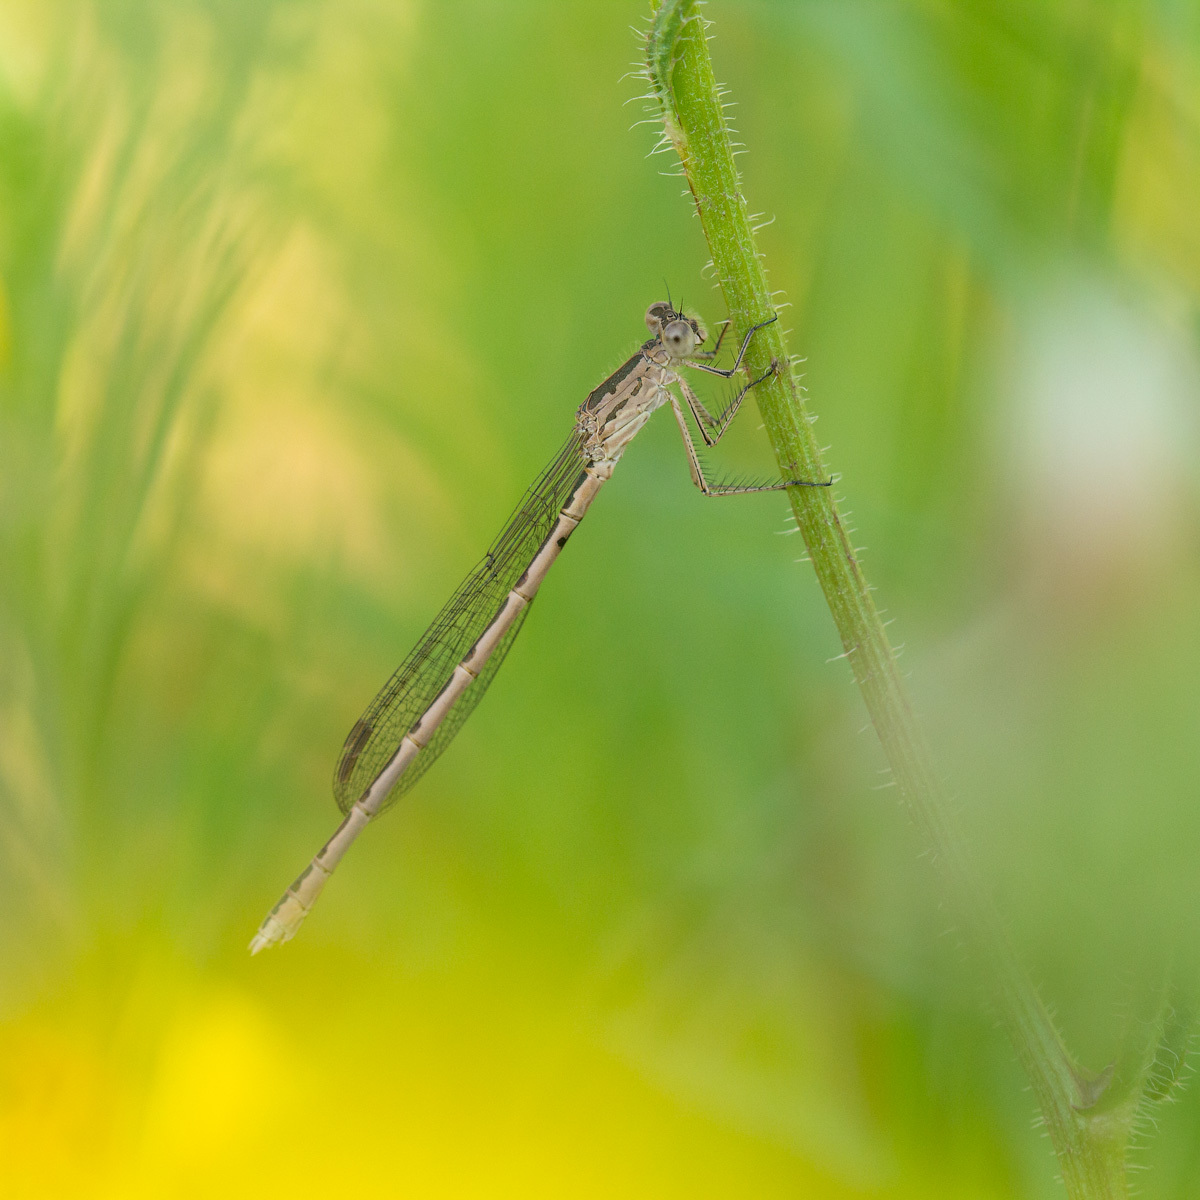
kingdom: Animalia
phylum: Arthropoda
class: Insecta
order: Odonata
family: Lestidae
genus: Sympecma
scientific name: Sympecma paedisca
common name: Siberian winter damsel
